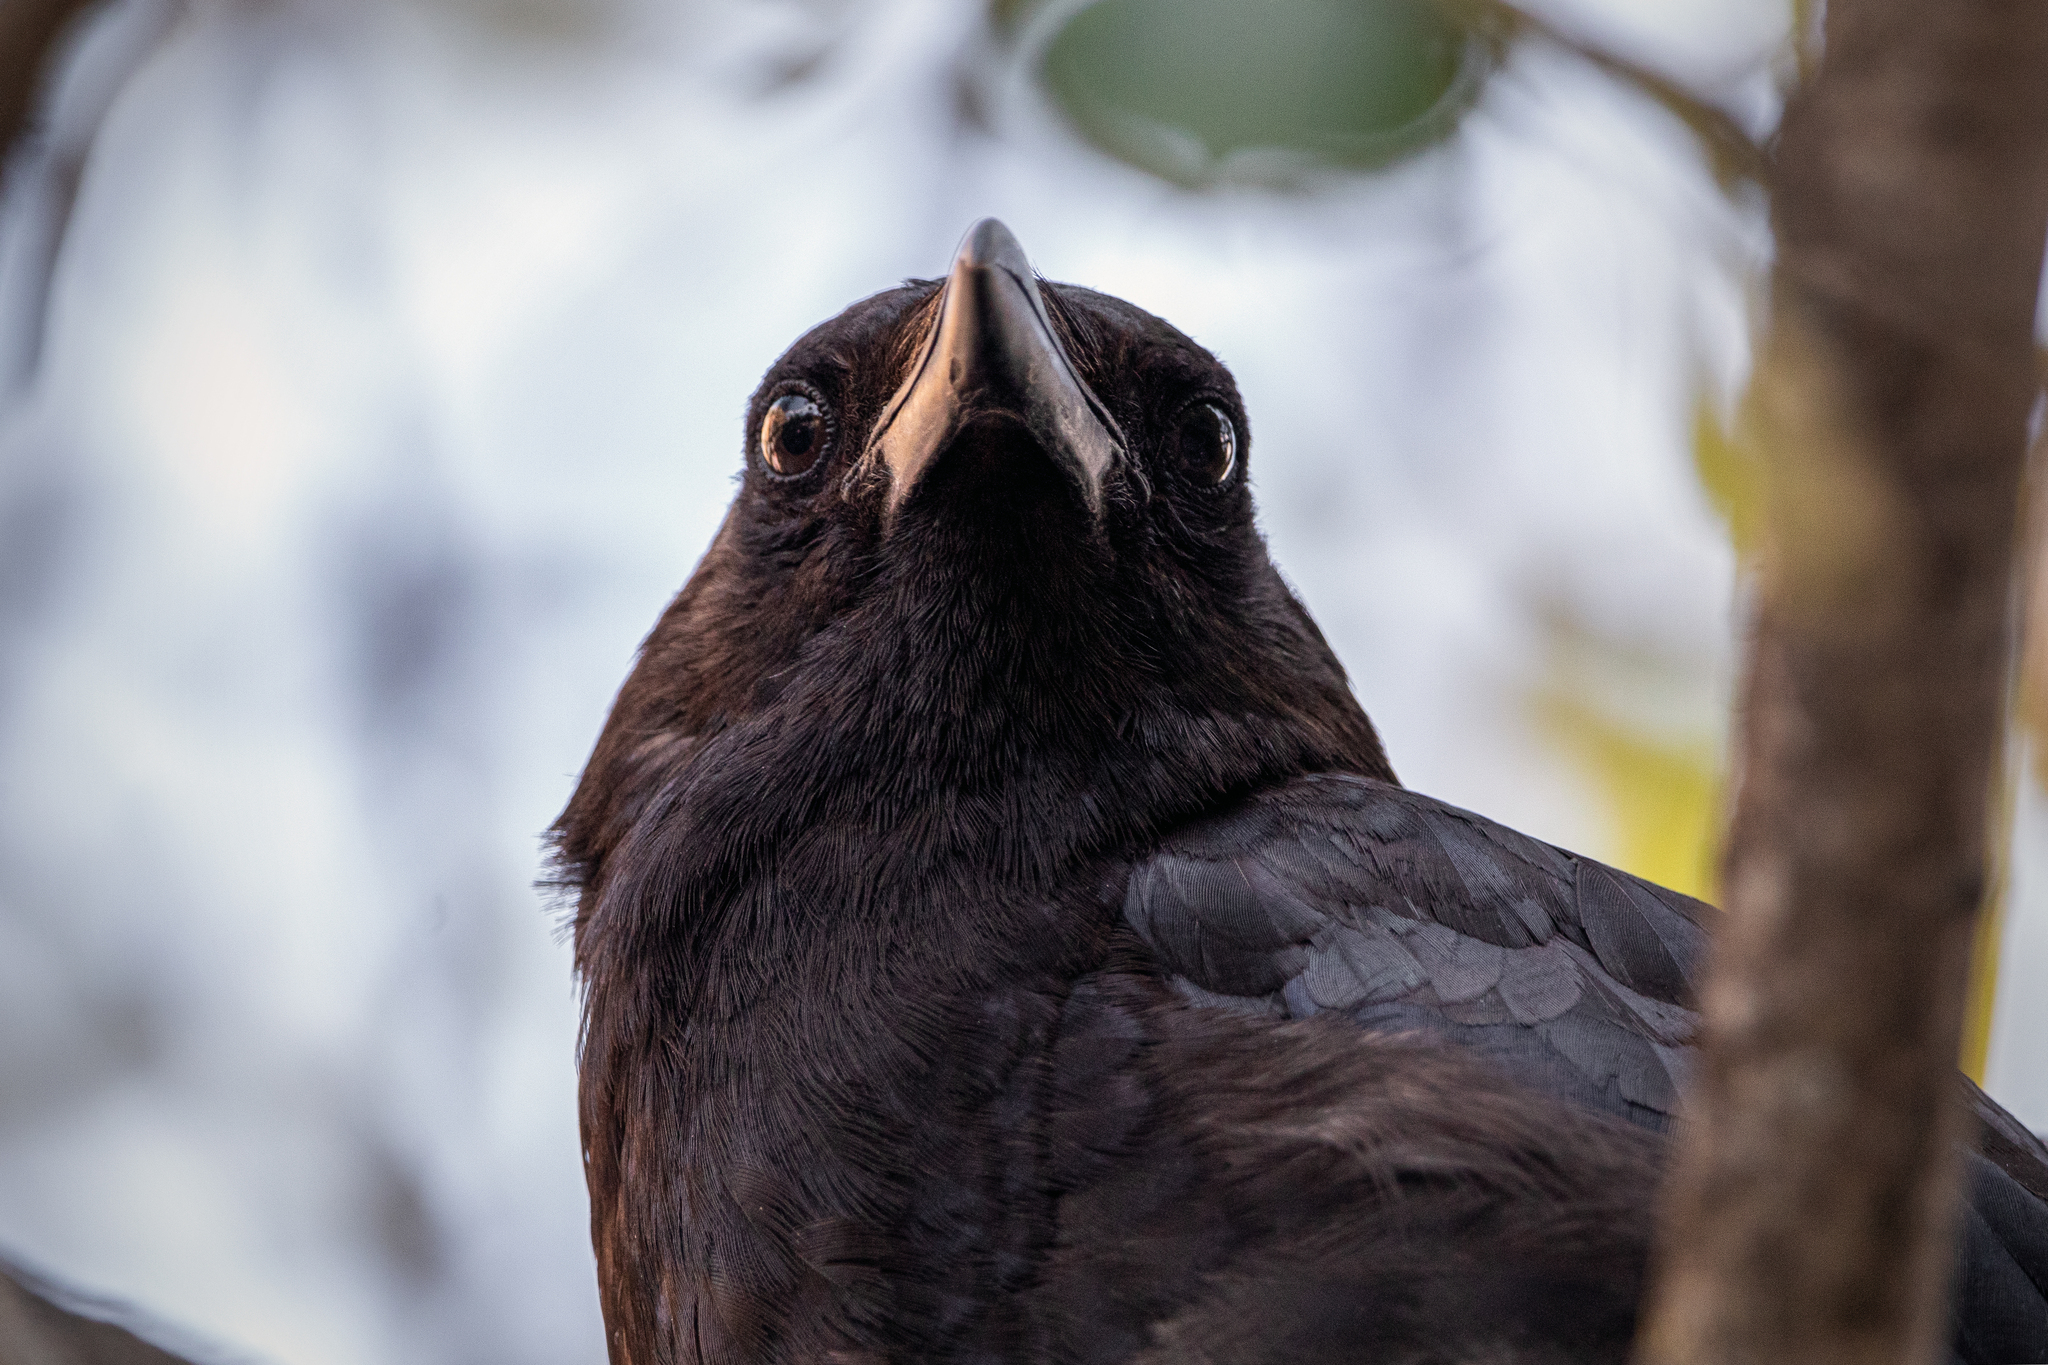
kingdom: Animalia
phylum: Chordata
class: Aves
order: Passeriformes
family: Corvidae
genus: Corvus
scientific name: Corvus brachyrhynchos
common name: American crow
